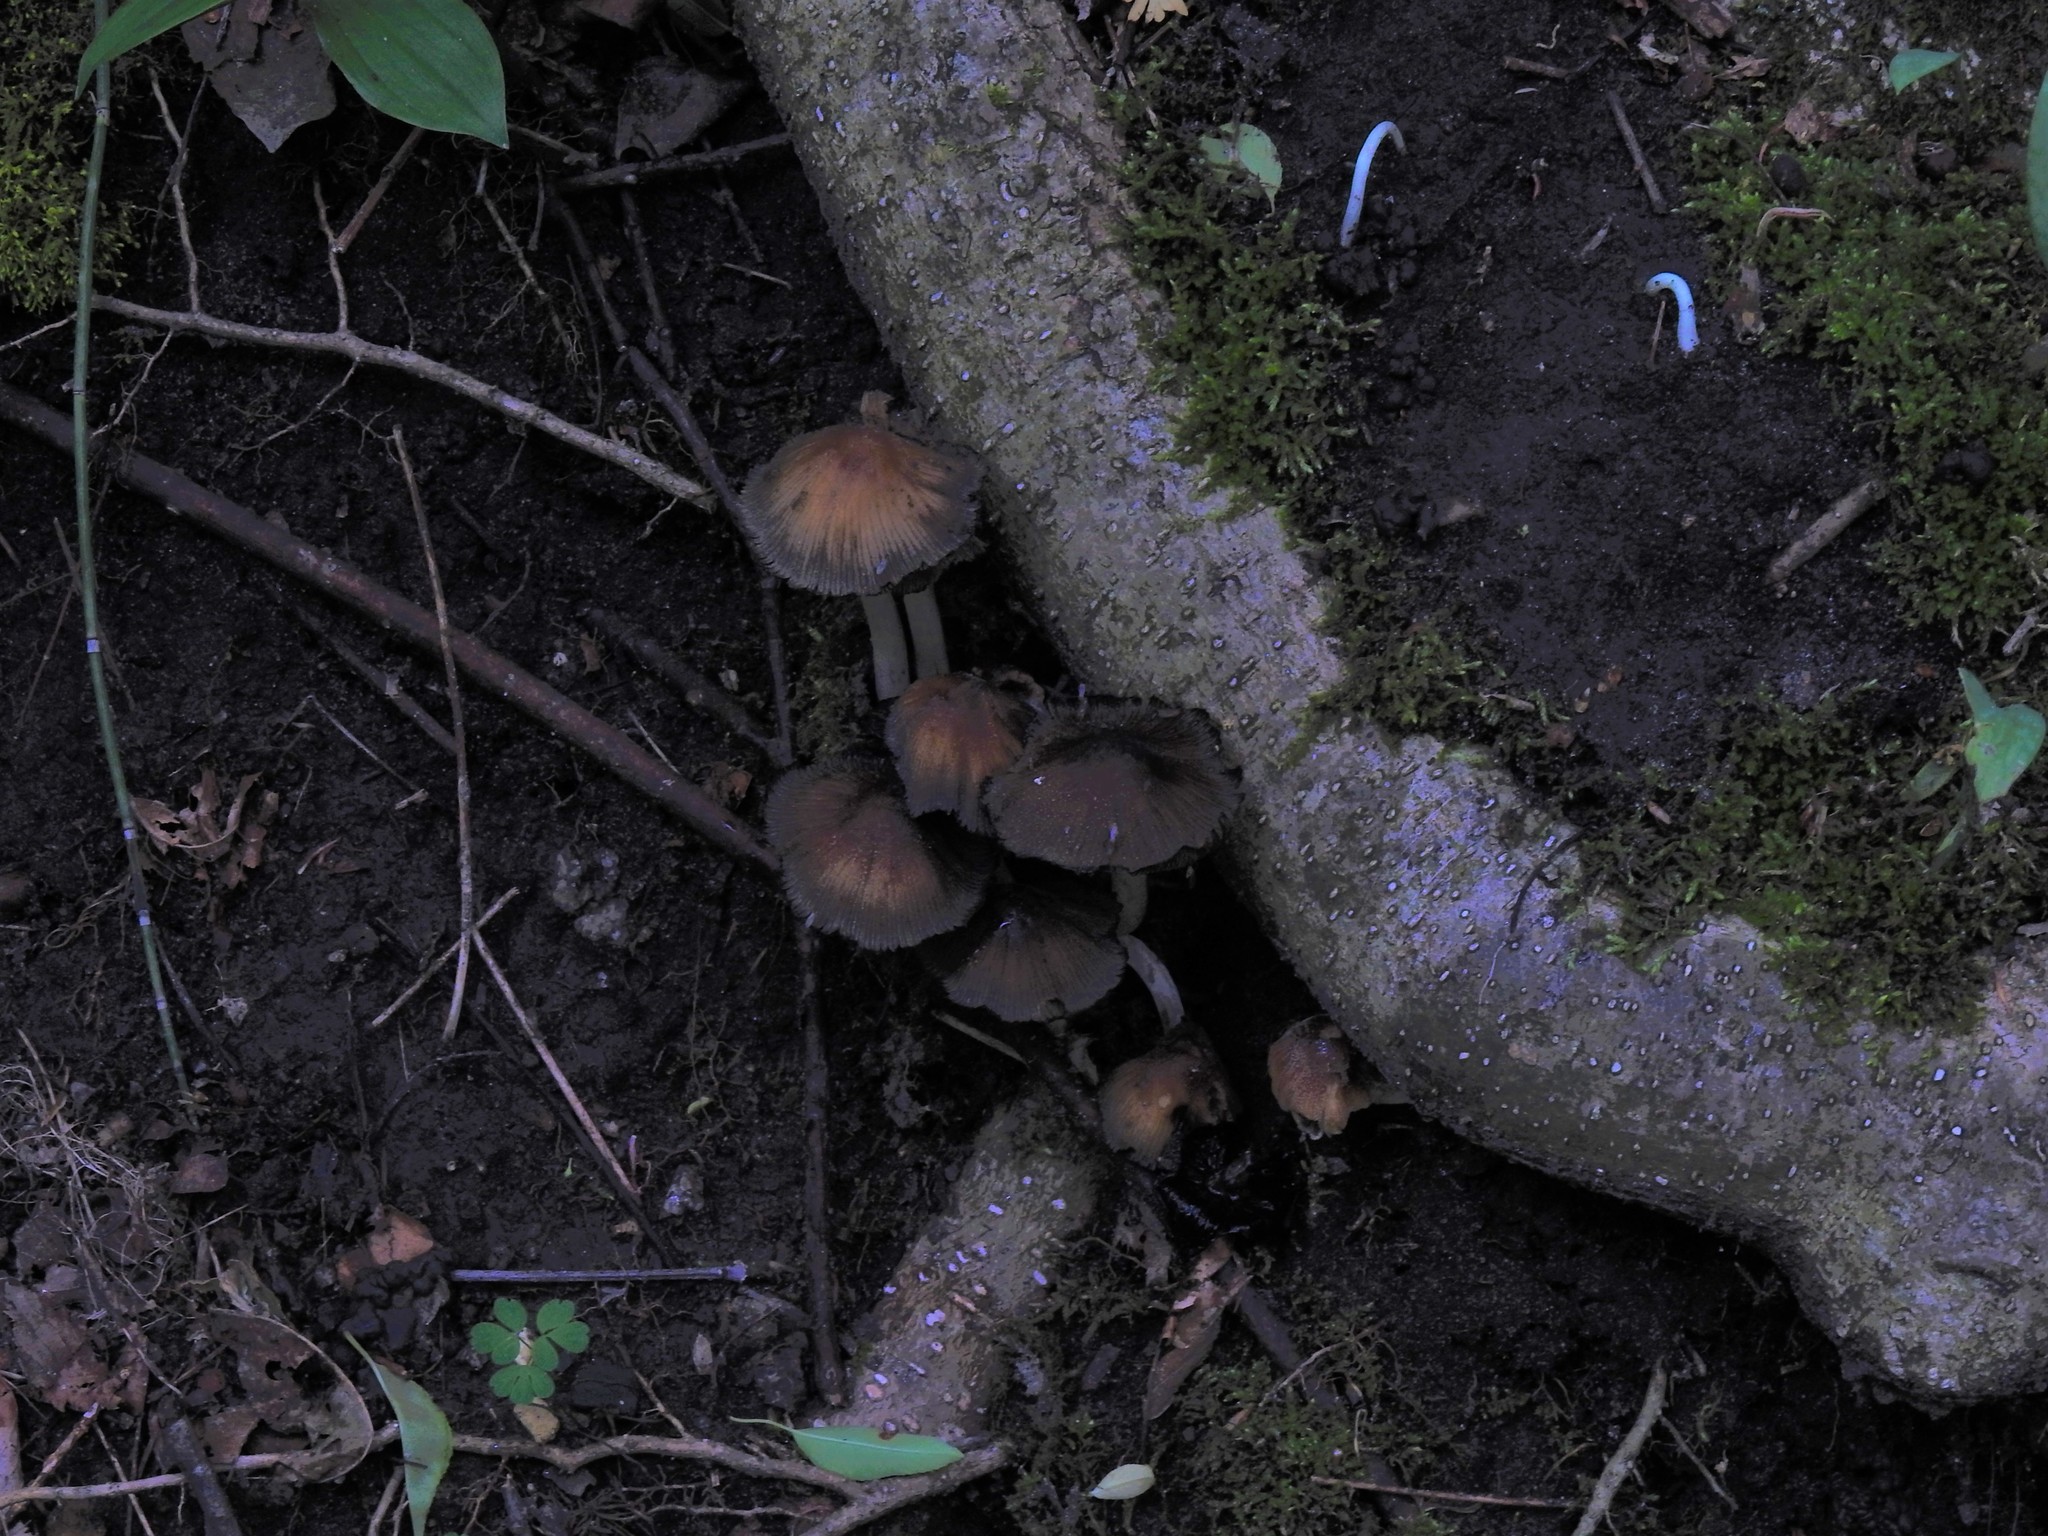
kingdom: Fungi
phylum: Basidiomycota
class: Agaricomycetes
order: Agaricales
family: Psathyrellaceae
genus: Coprinellus
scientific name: Coprinellus micaceus
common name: Glistening ink-cap
